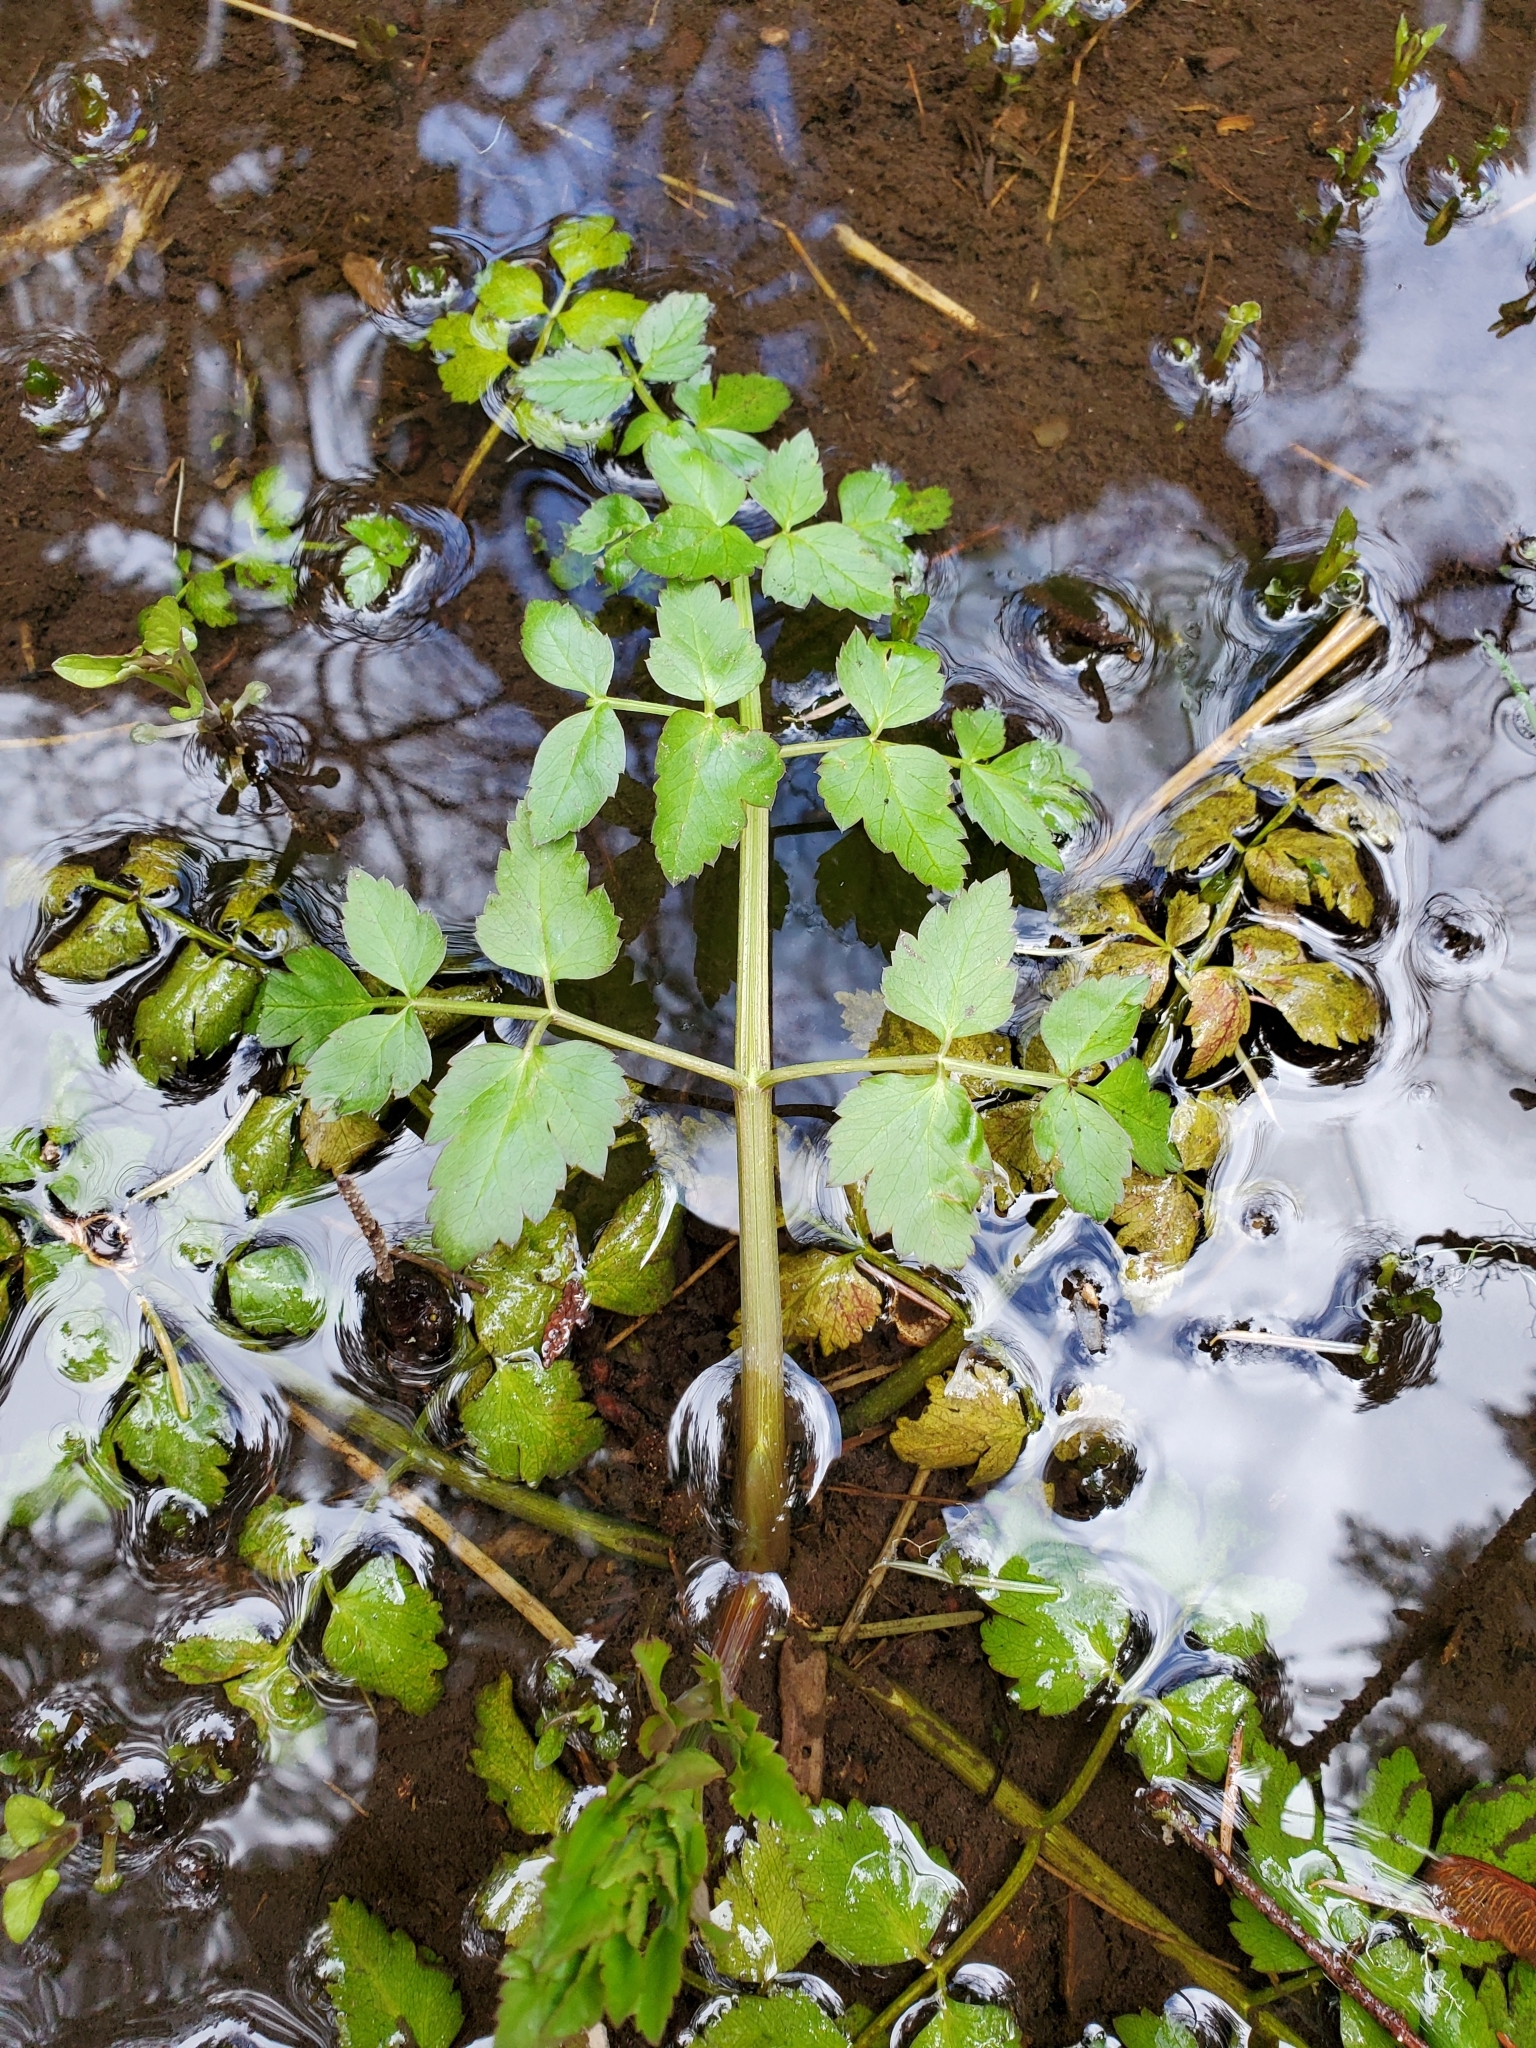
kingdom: Plantae
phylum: Tracheophyta
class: Magnoliopsida
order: Apiales
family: Apiaceae
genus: Oenanthe
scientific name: Oenanthe sarmentosa
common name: American water-parsley
